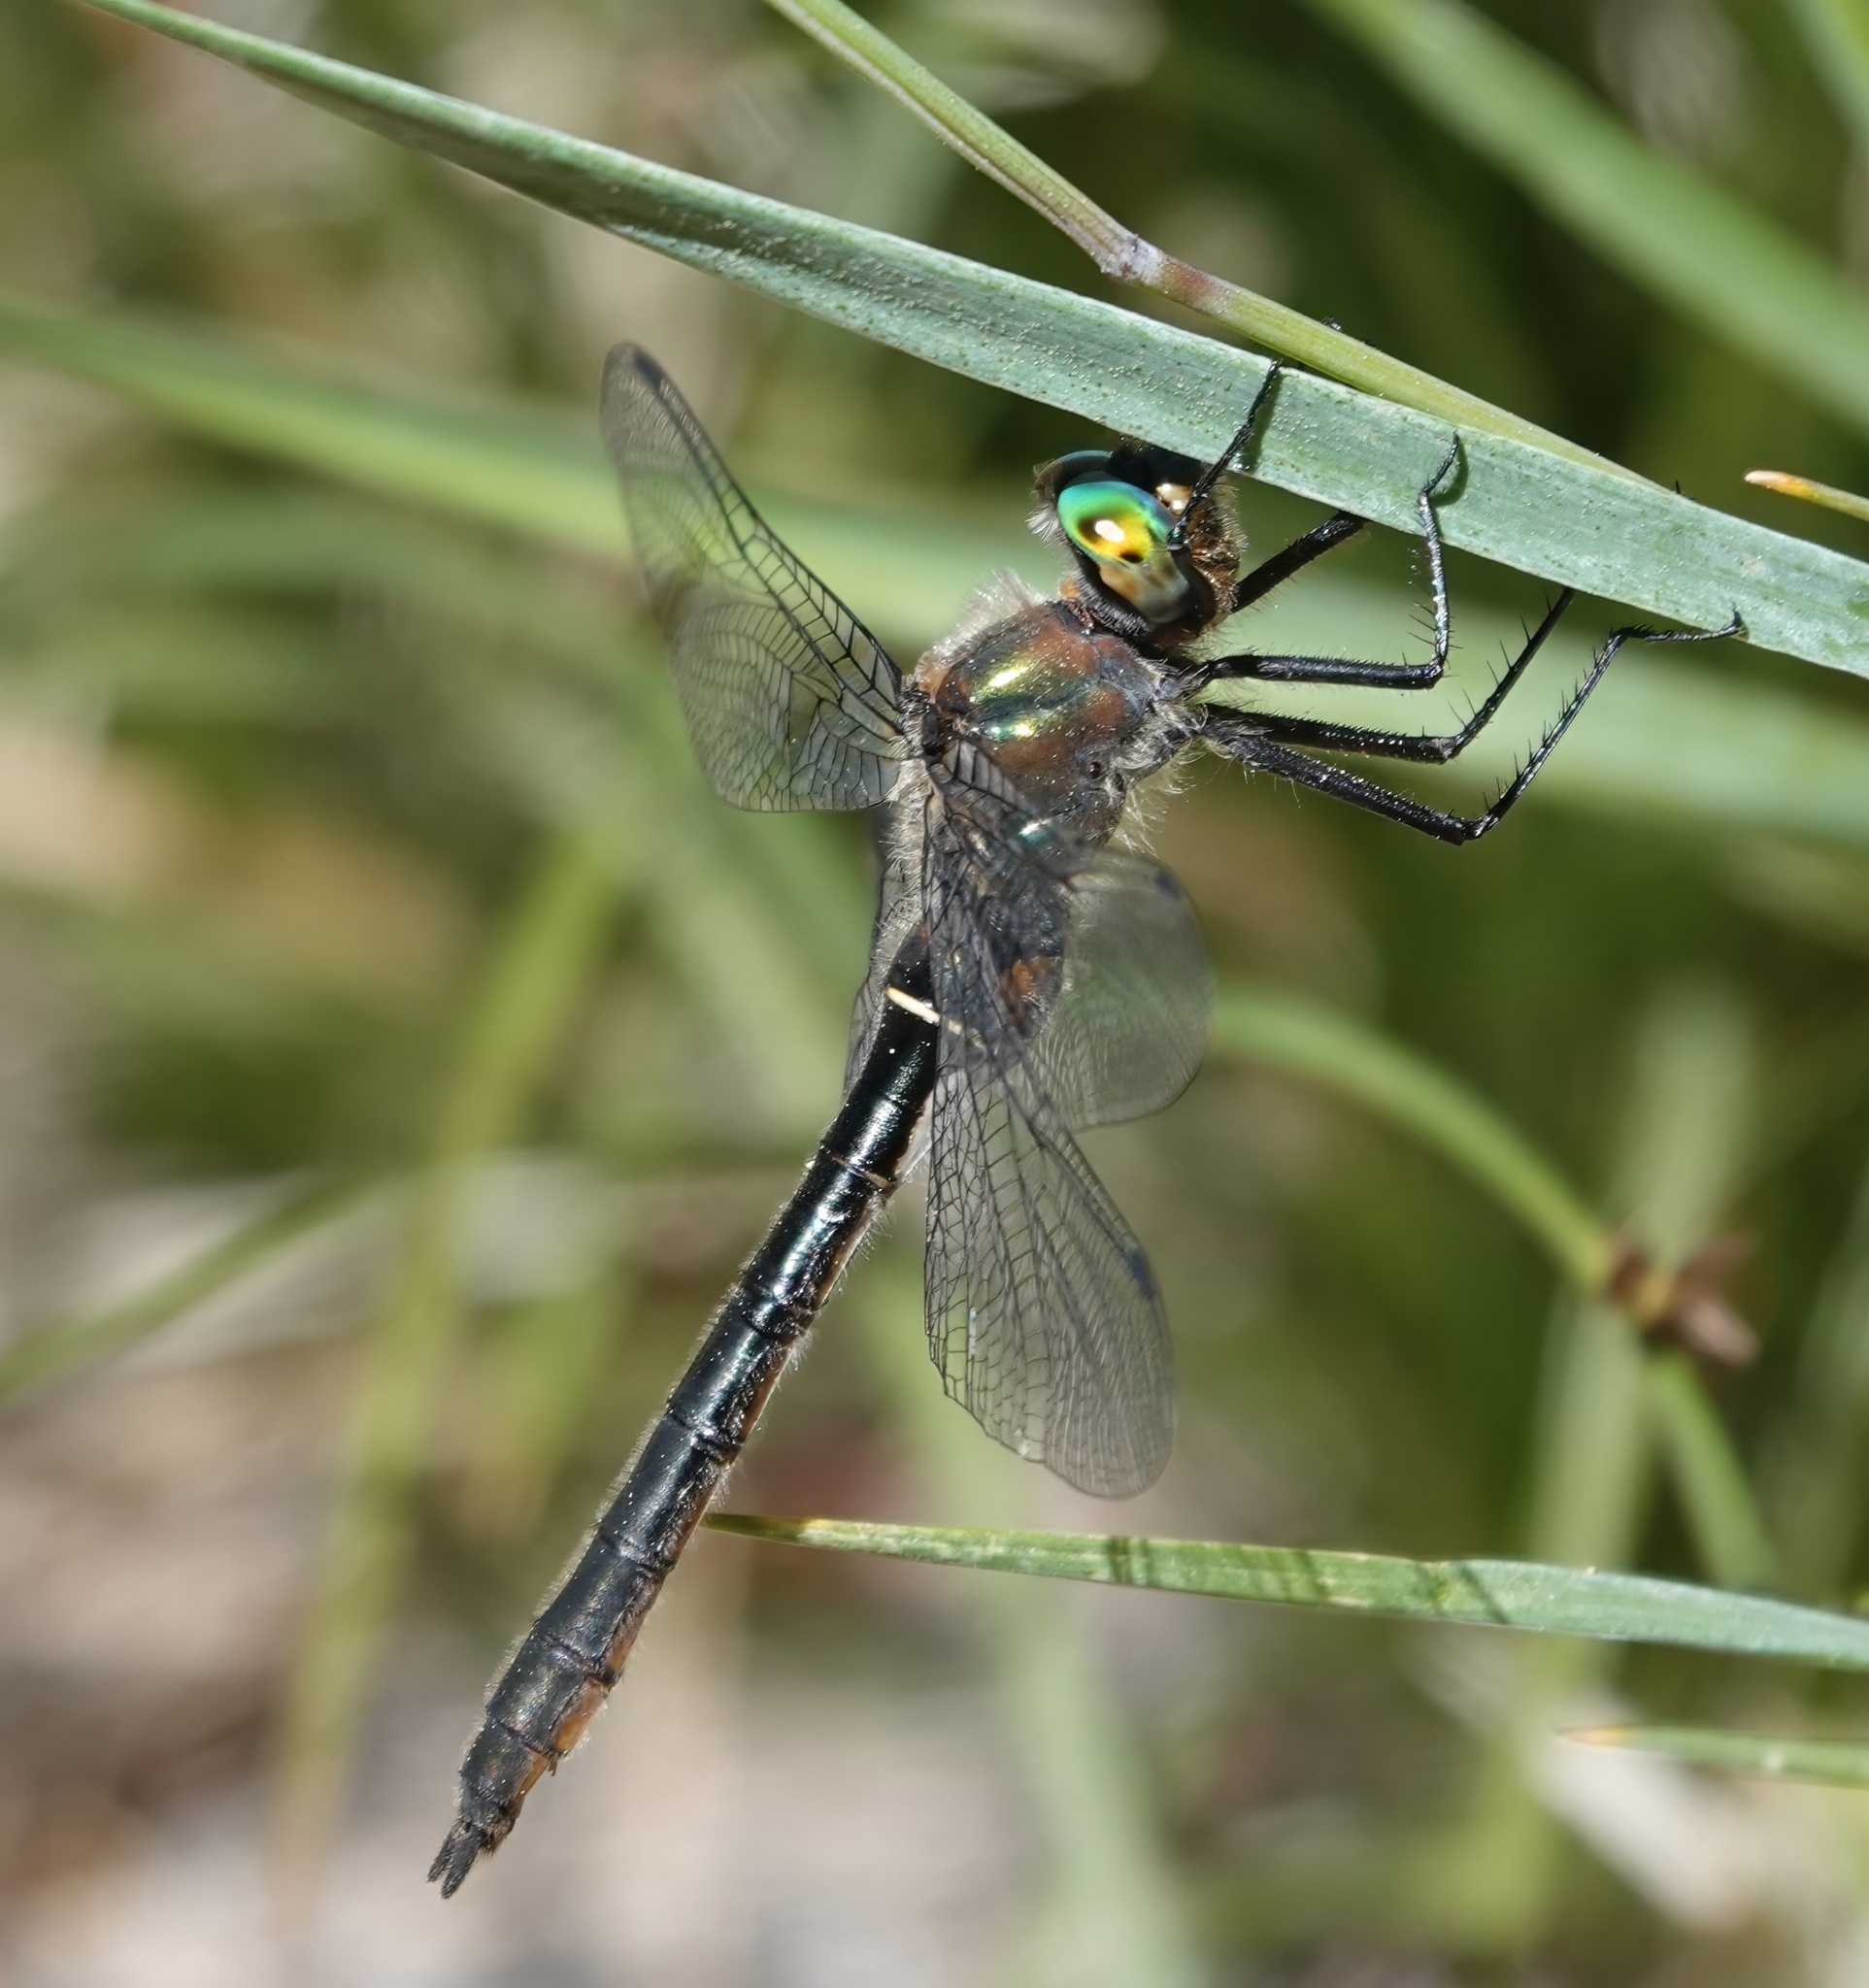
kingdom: Animalia
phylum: Arthropoda
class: Insecta
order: Odonata
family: Corduliidae
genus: Cordulia
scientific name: Cordulia shurtleffii
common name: American emerald
